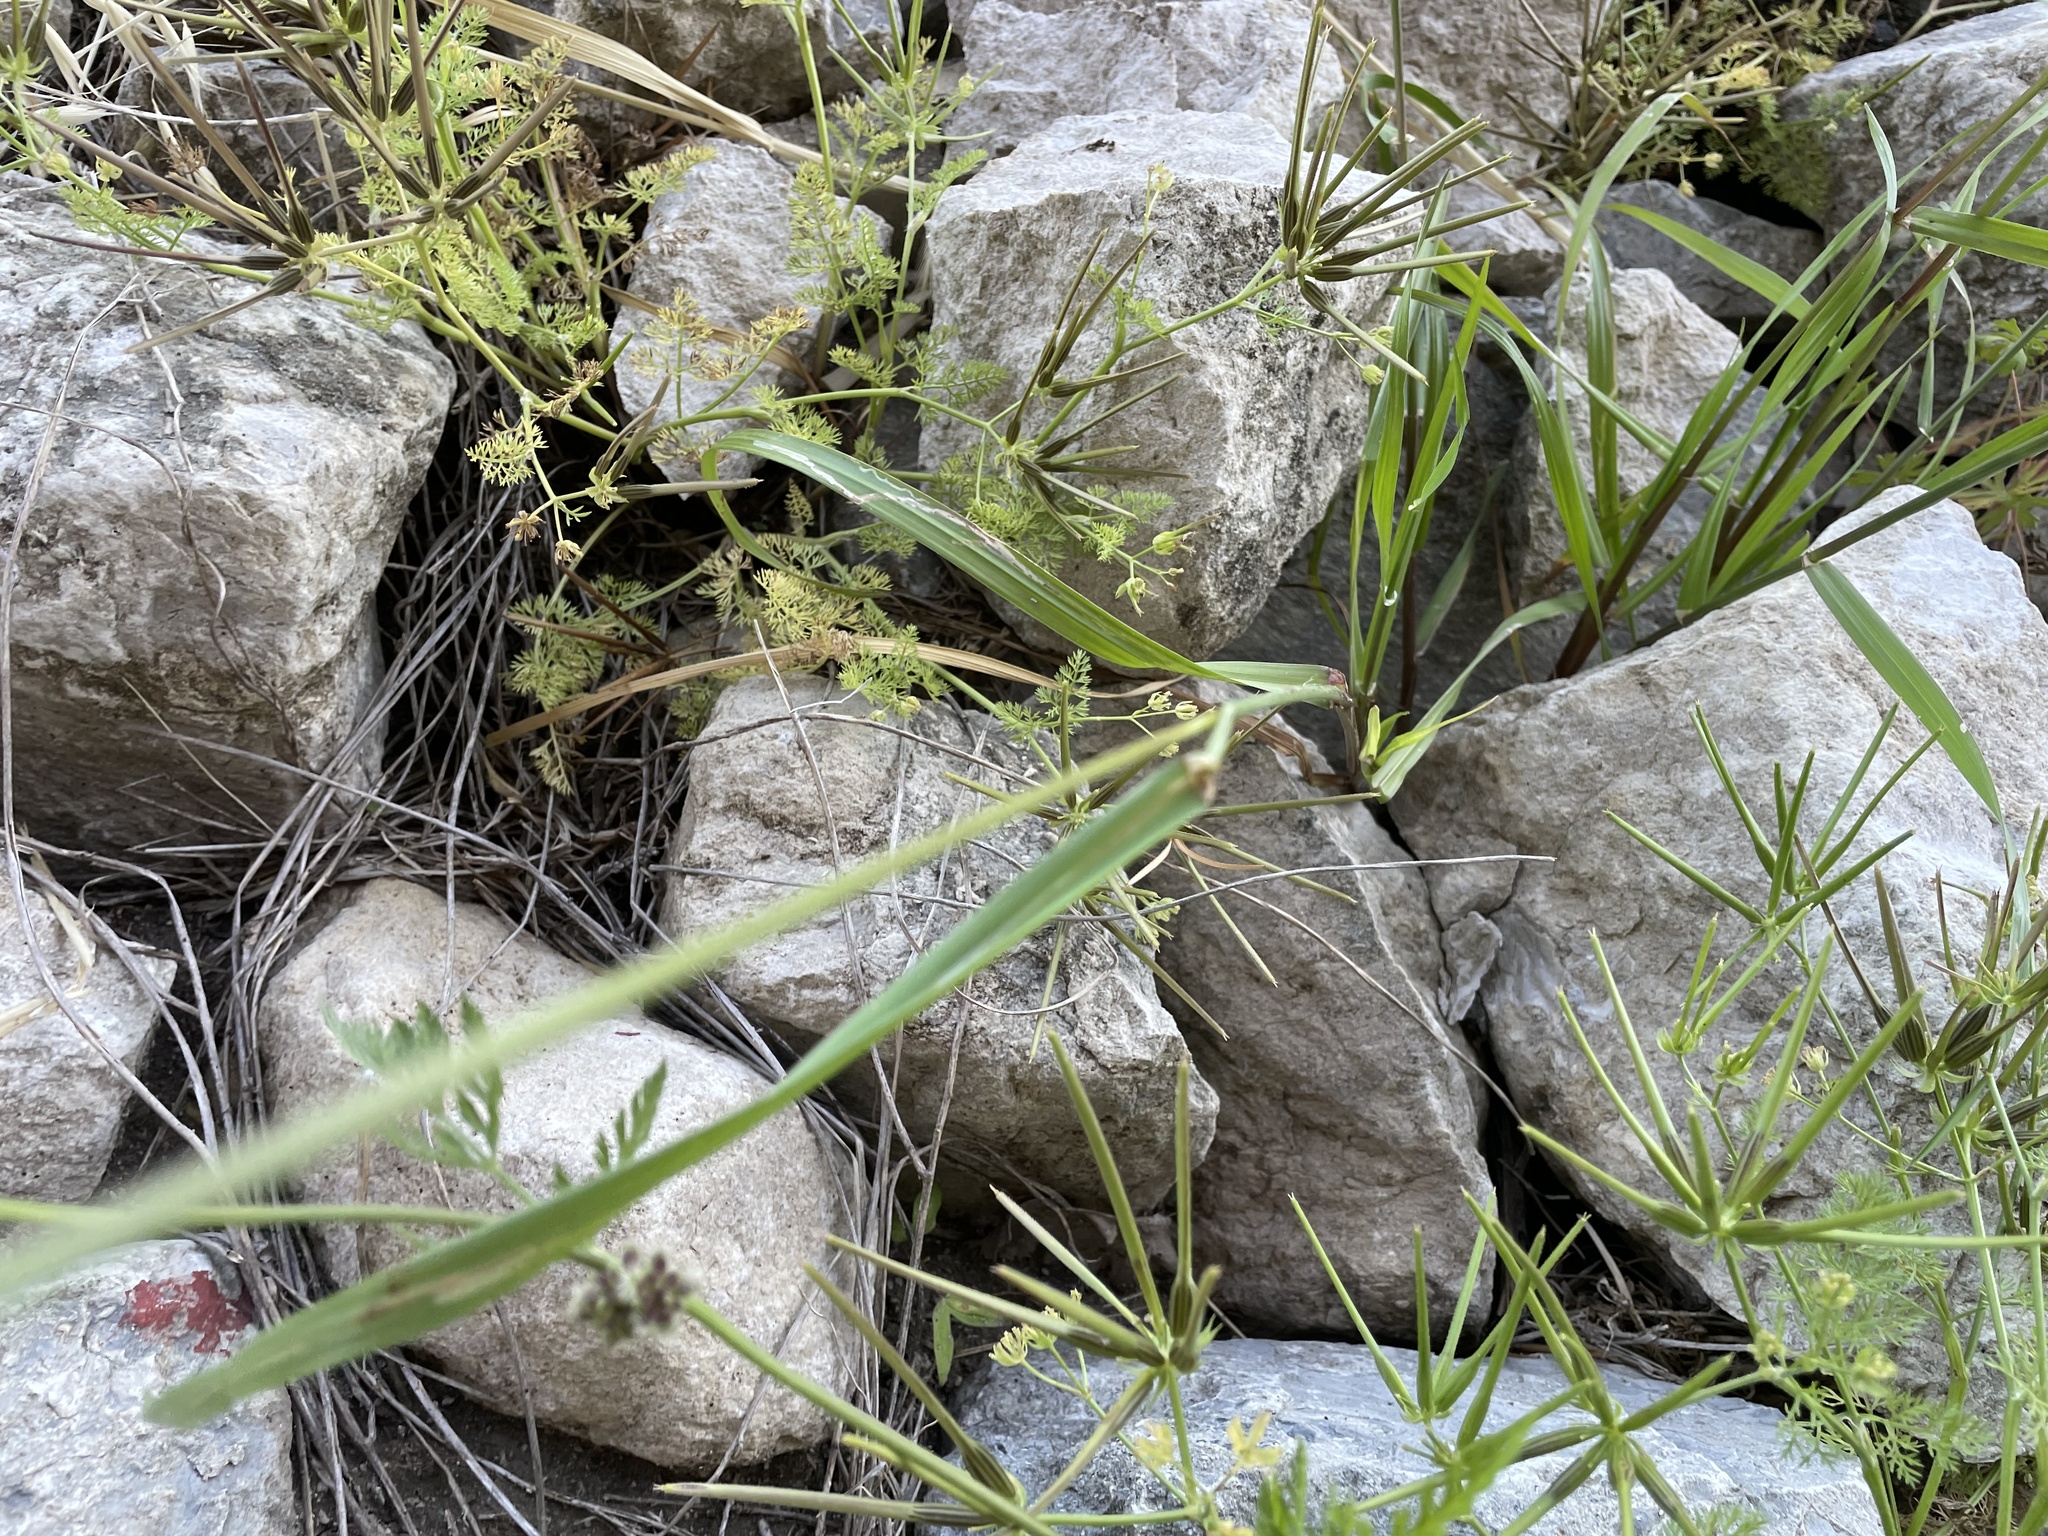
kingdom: Plantae
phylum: Tracheophyta
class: Liliopsida
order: Poales
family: Poaceae
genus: Lolium
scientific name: Lolium perenne
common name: Perennial ryegrass
